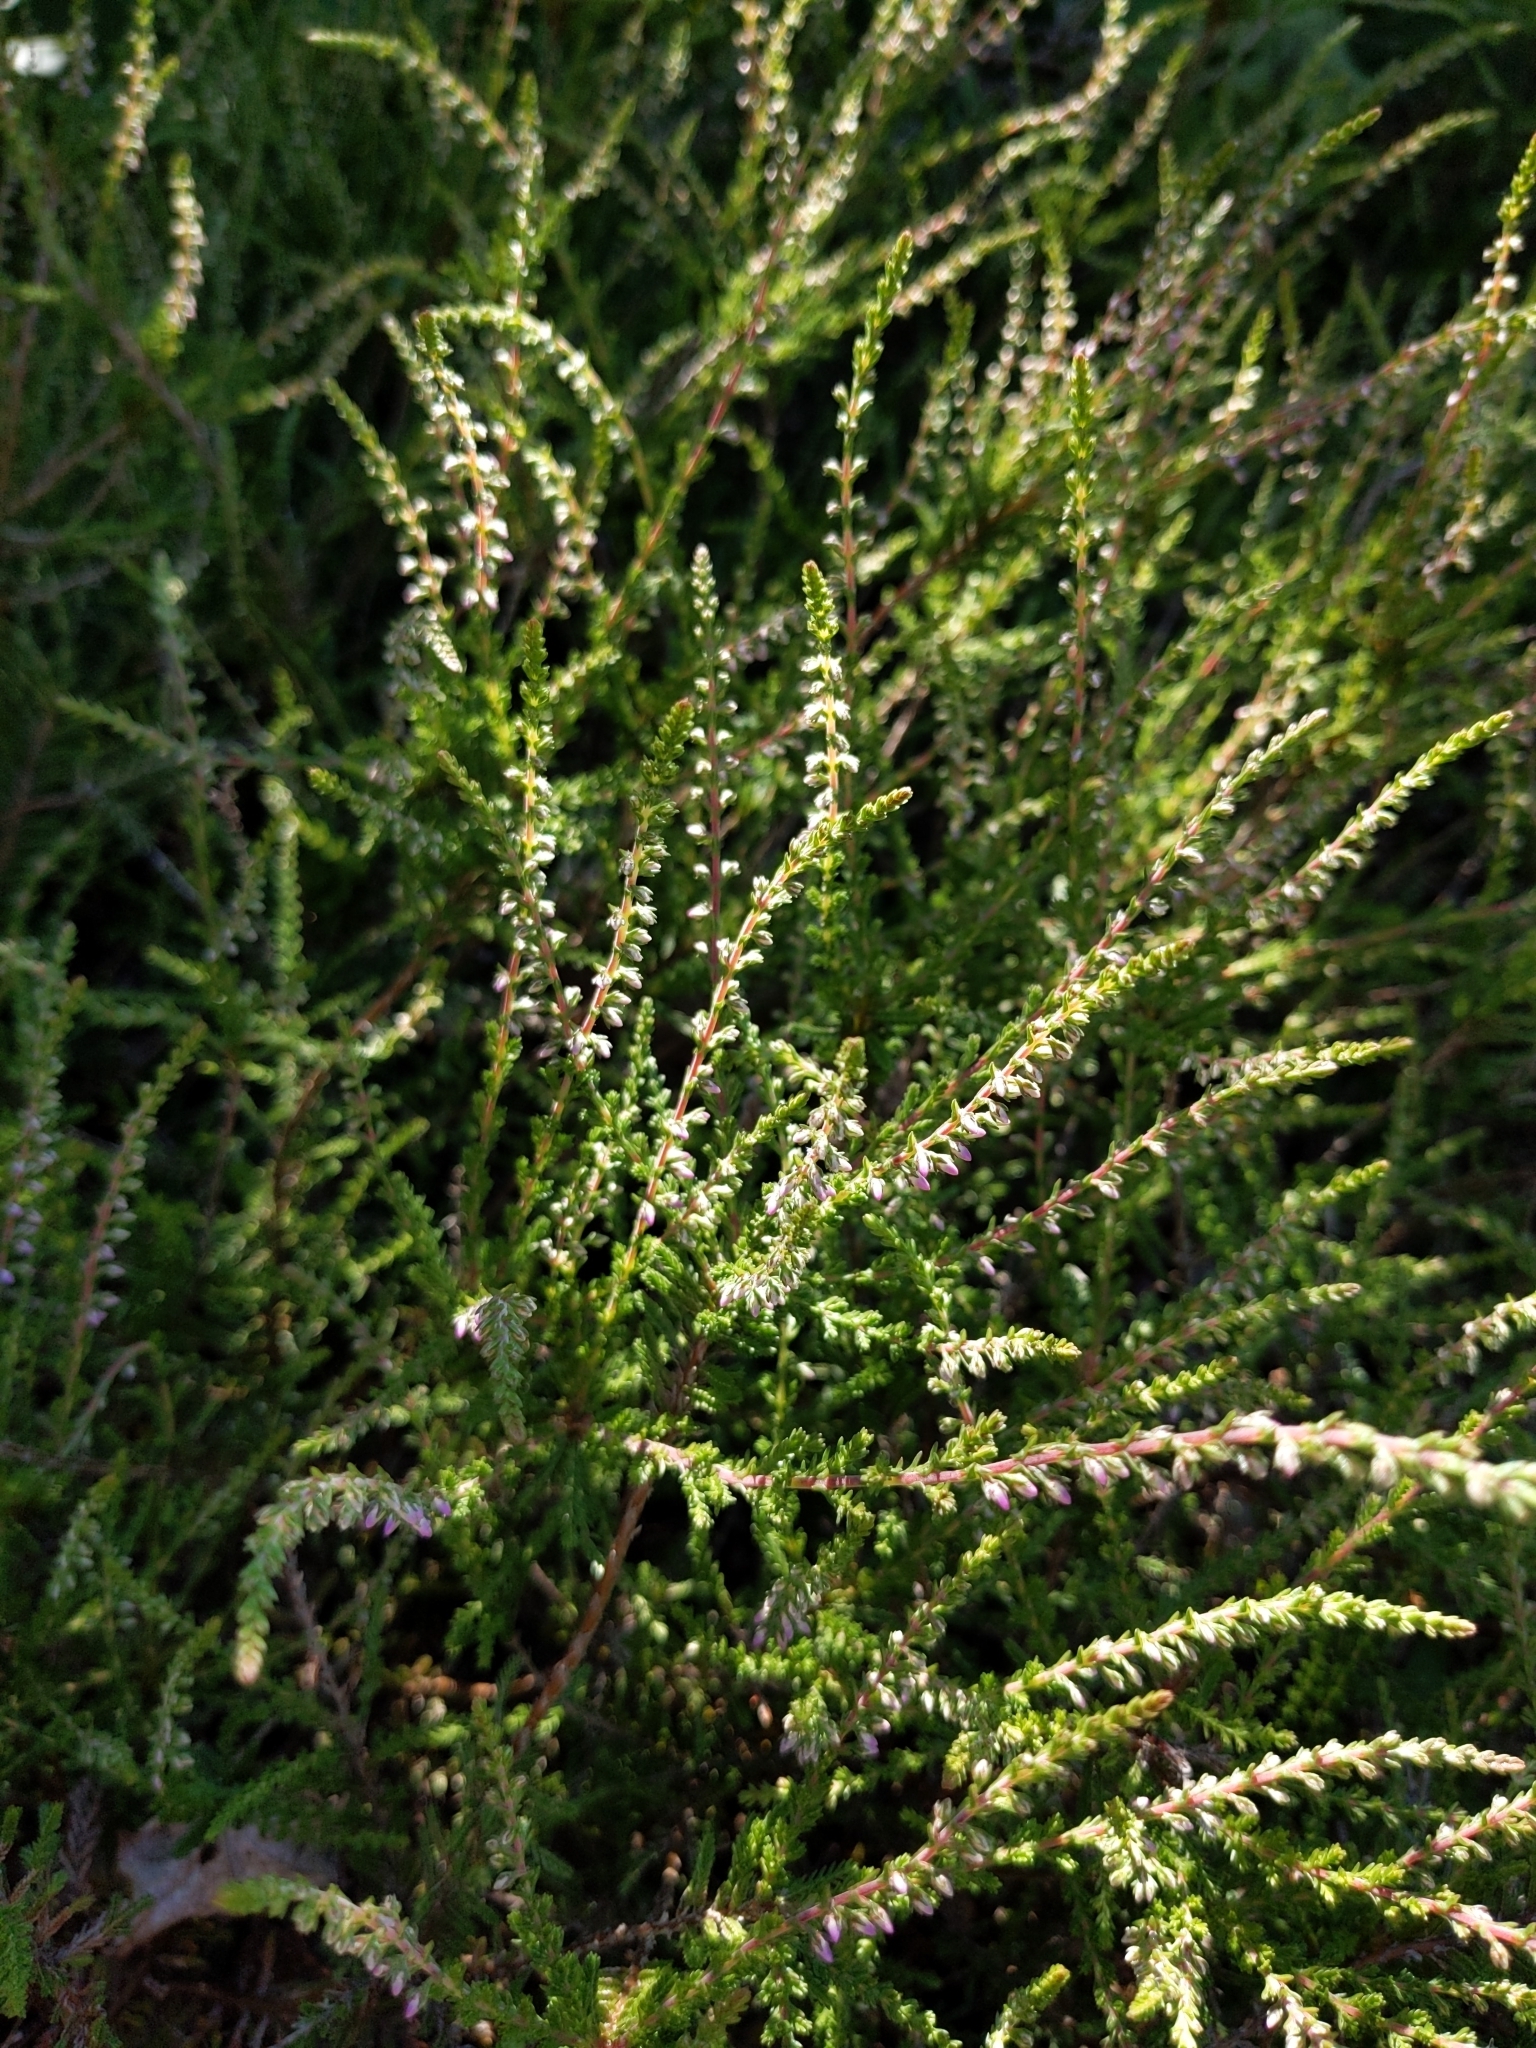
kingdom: Plantae
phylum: Tracheophyta
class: Magnoliopsida
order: Ericales
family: Ericaceae
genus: Calluna
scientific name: Calluna vulgaris
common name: Heather
